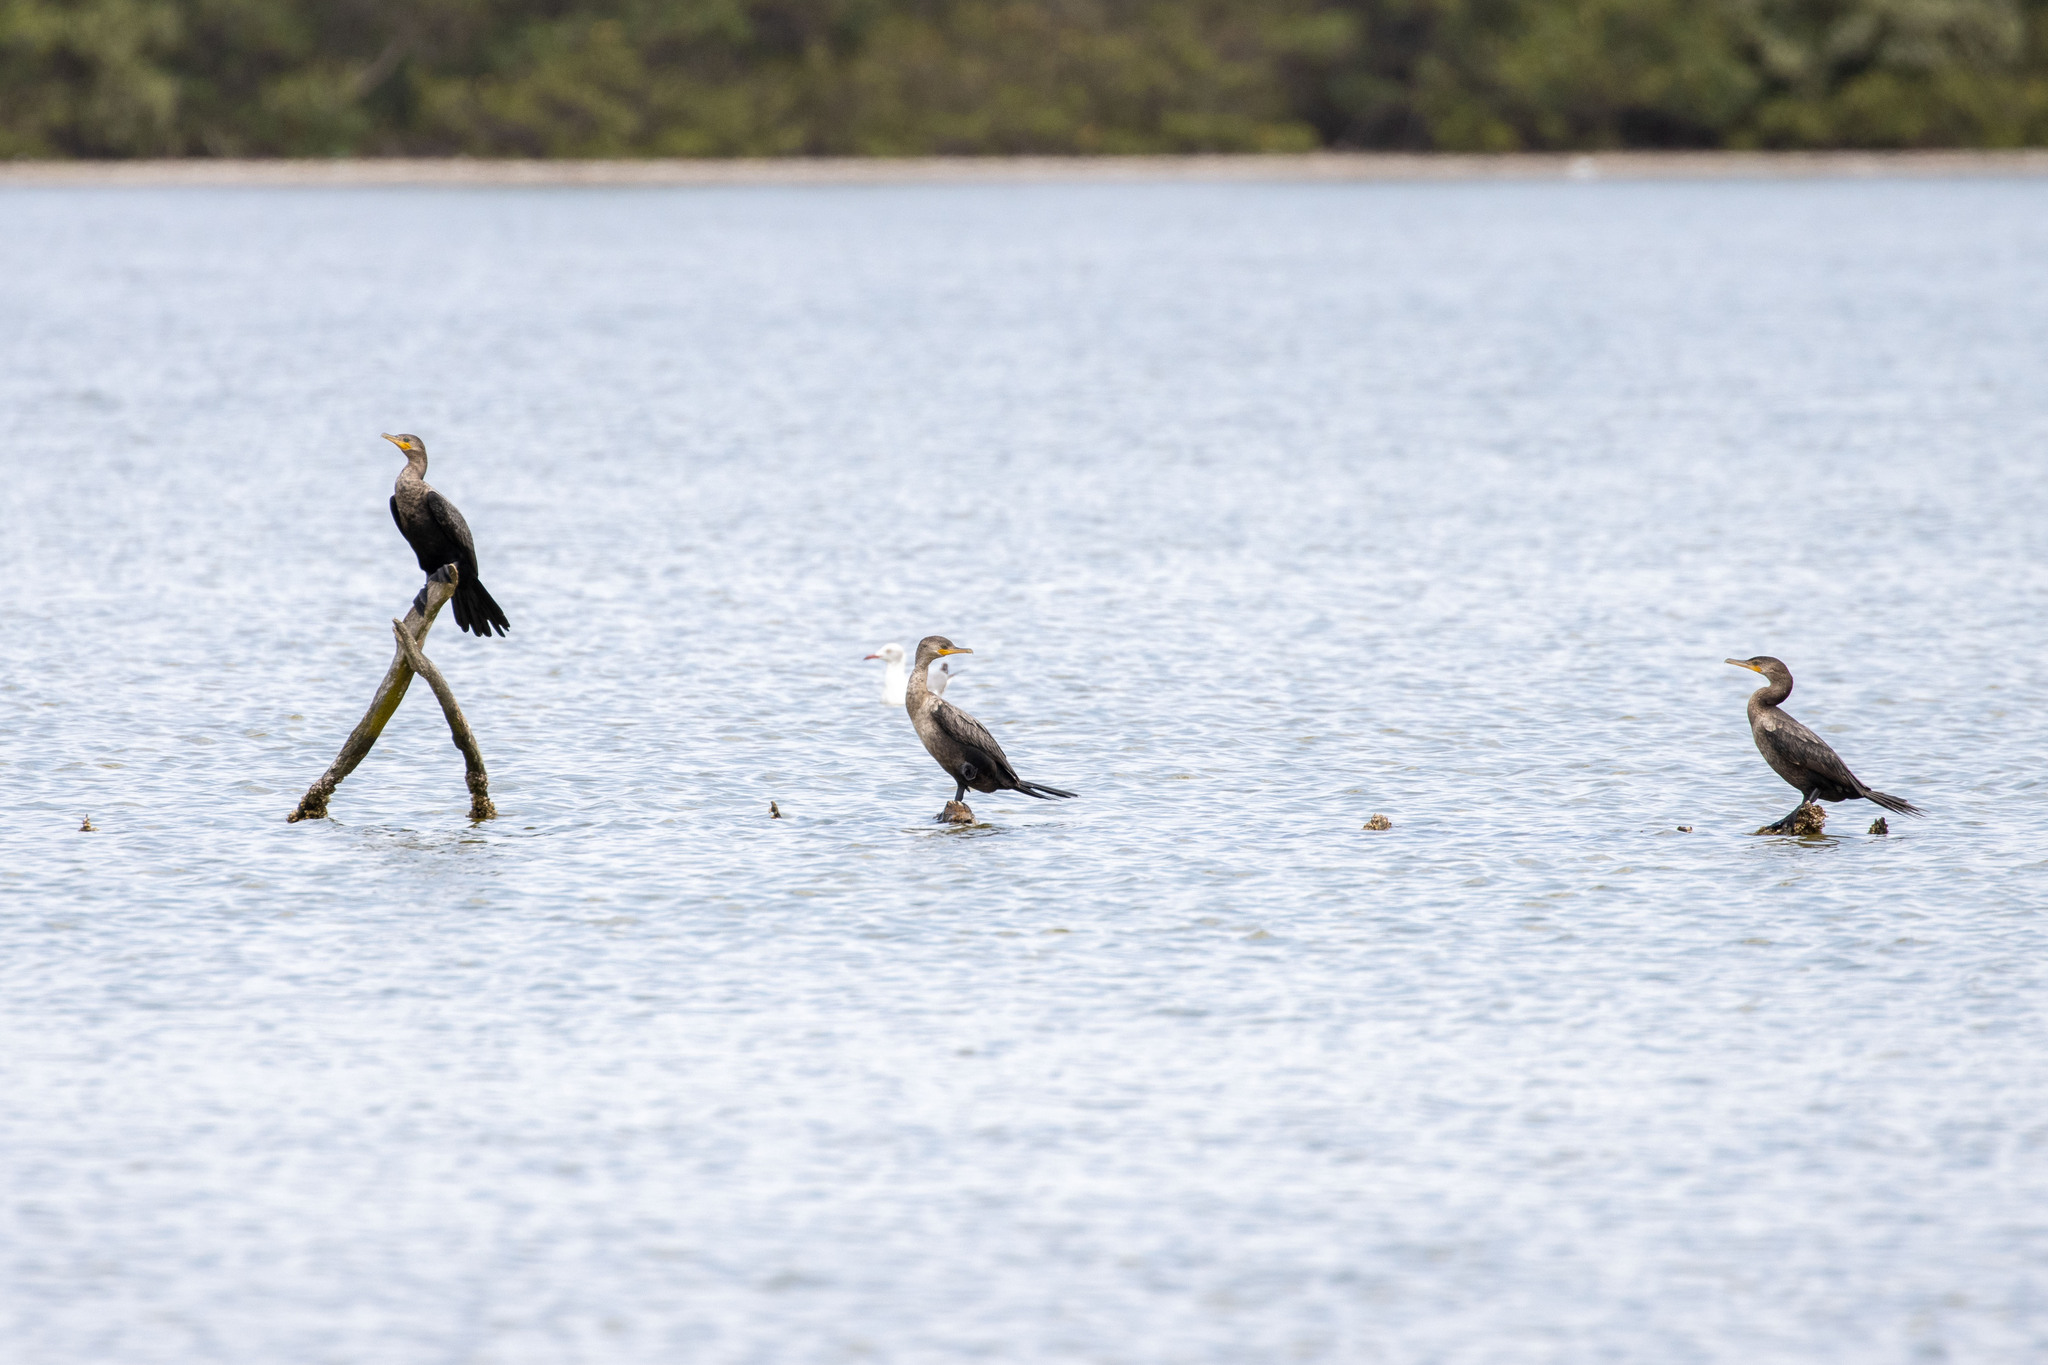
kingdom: Animalia
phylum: Chordata
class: Aves
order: Suliformes
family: Phalacrocoracidae
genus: Phalacrocorax
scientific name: Phalacrocorax brasilianus
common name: Neotropic cormorant
